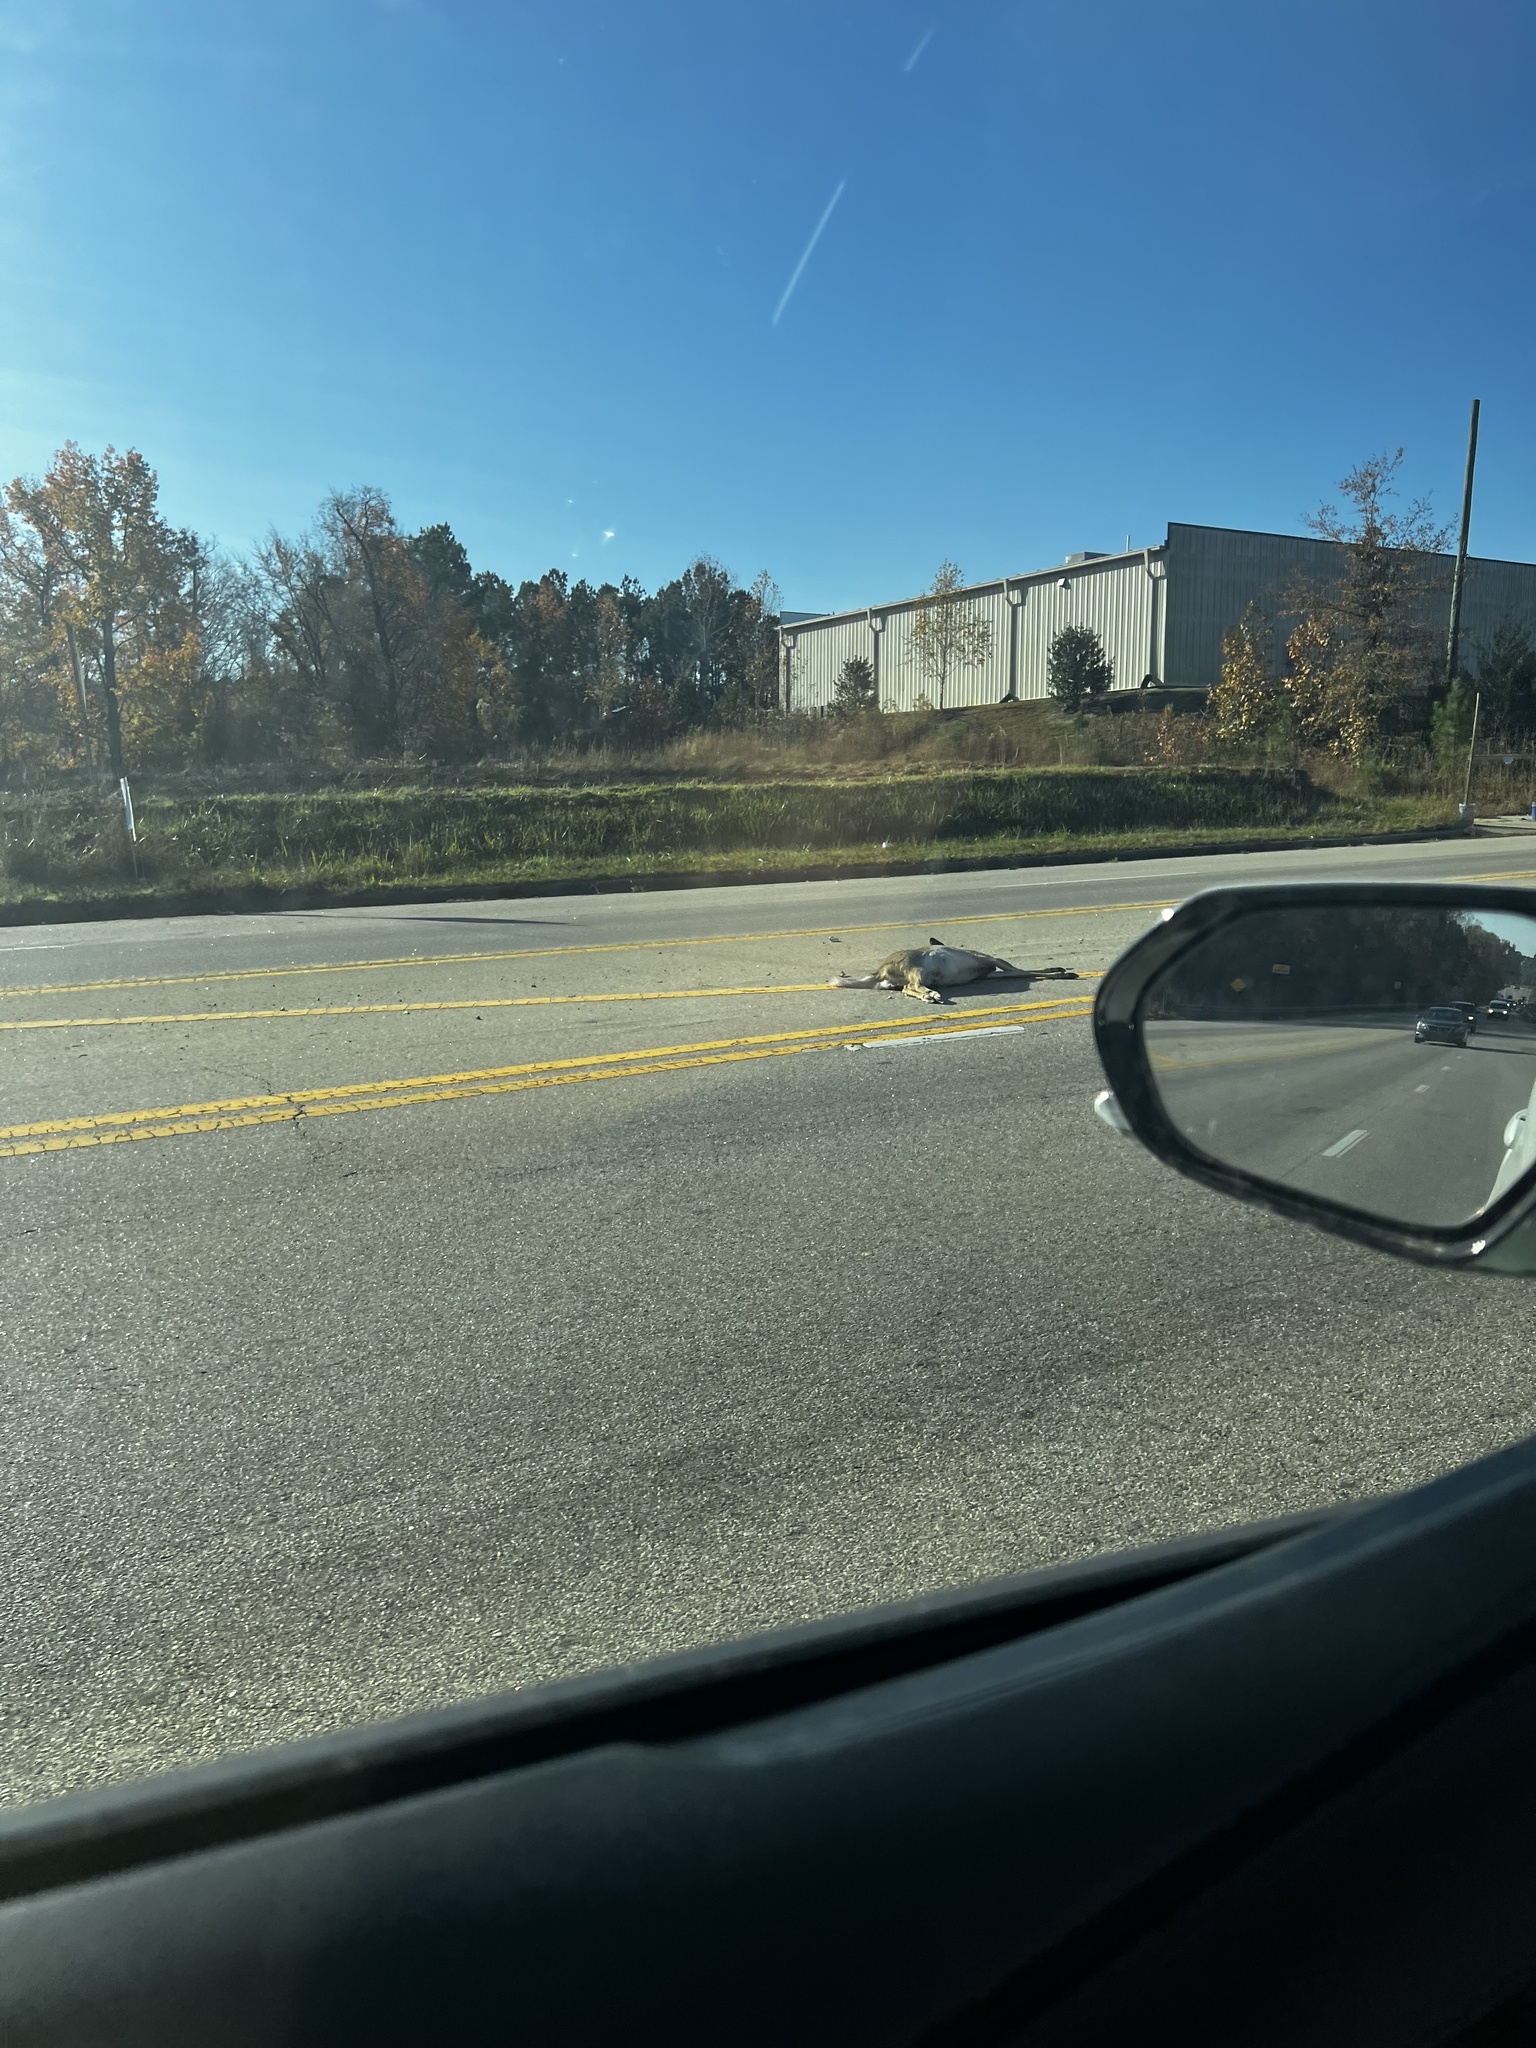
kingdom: Animalia
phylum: Chordata
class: Mammalia
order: Artiodactyla
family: Cervidae
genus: Odocoileus
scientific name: Odocoileus virginianus
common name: White-tailed deer
